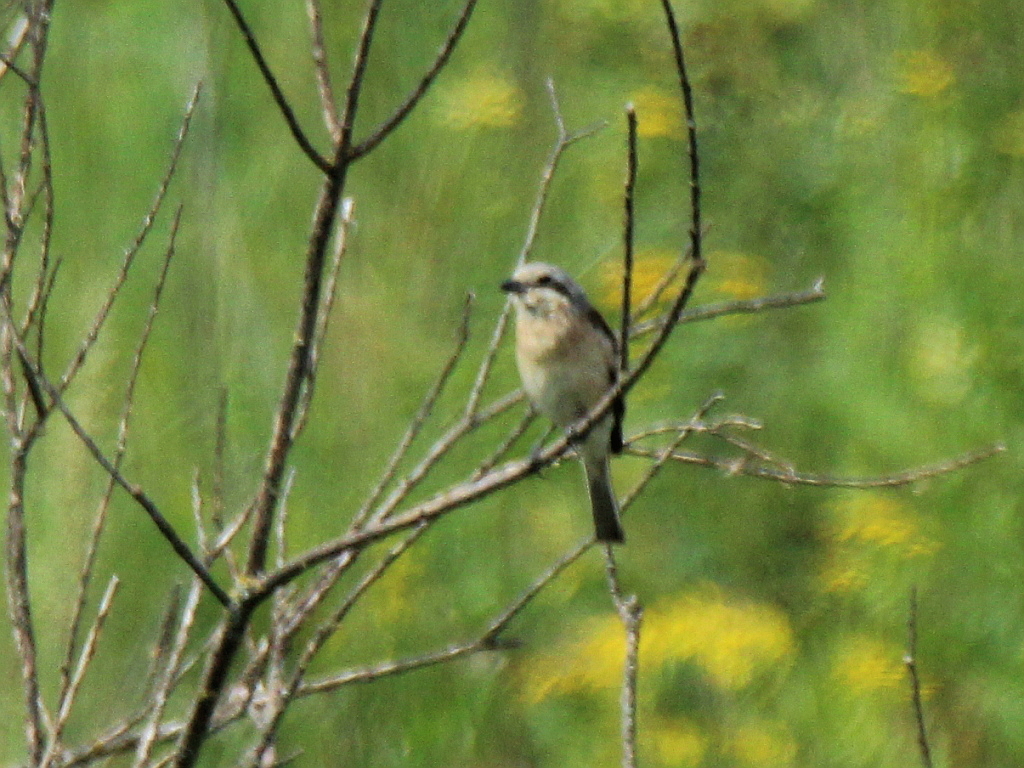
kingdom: Animalia
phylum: Chordata
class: Aves
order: Passeriformes
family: Laniidae
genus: Lanius
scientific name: Lanius collurio
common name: Red-backed shrike
